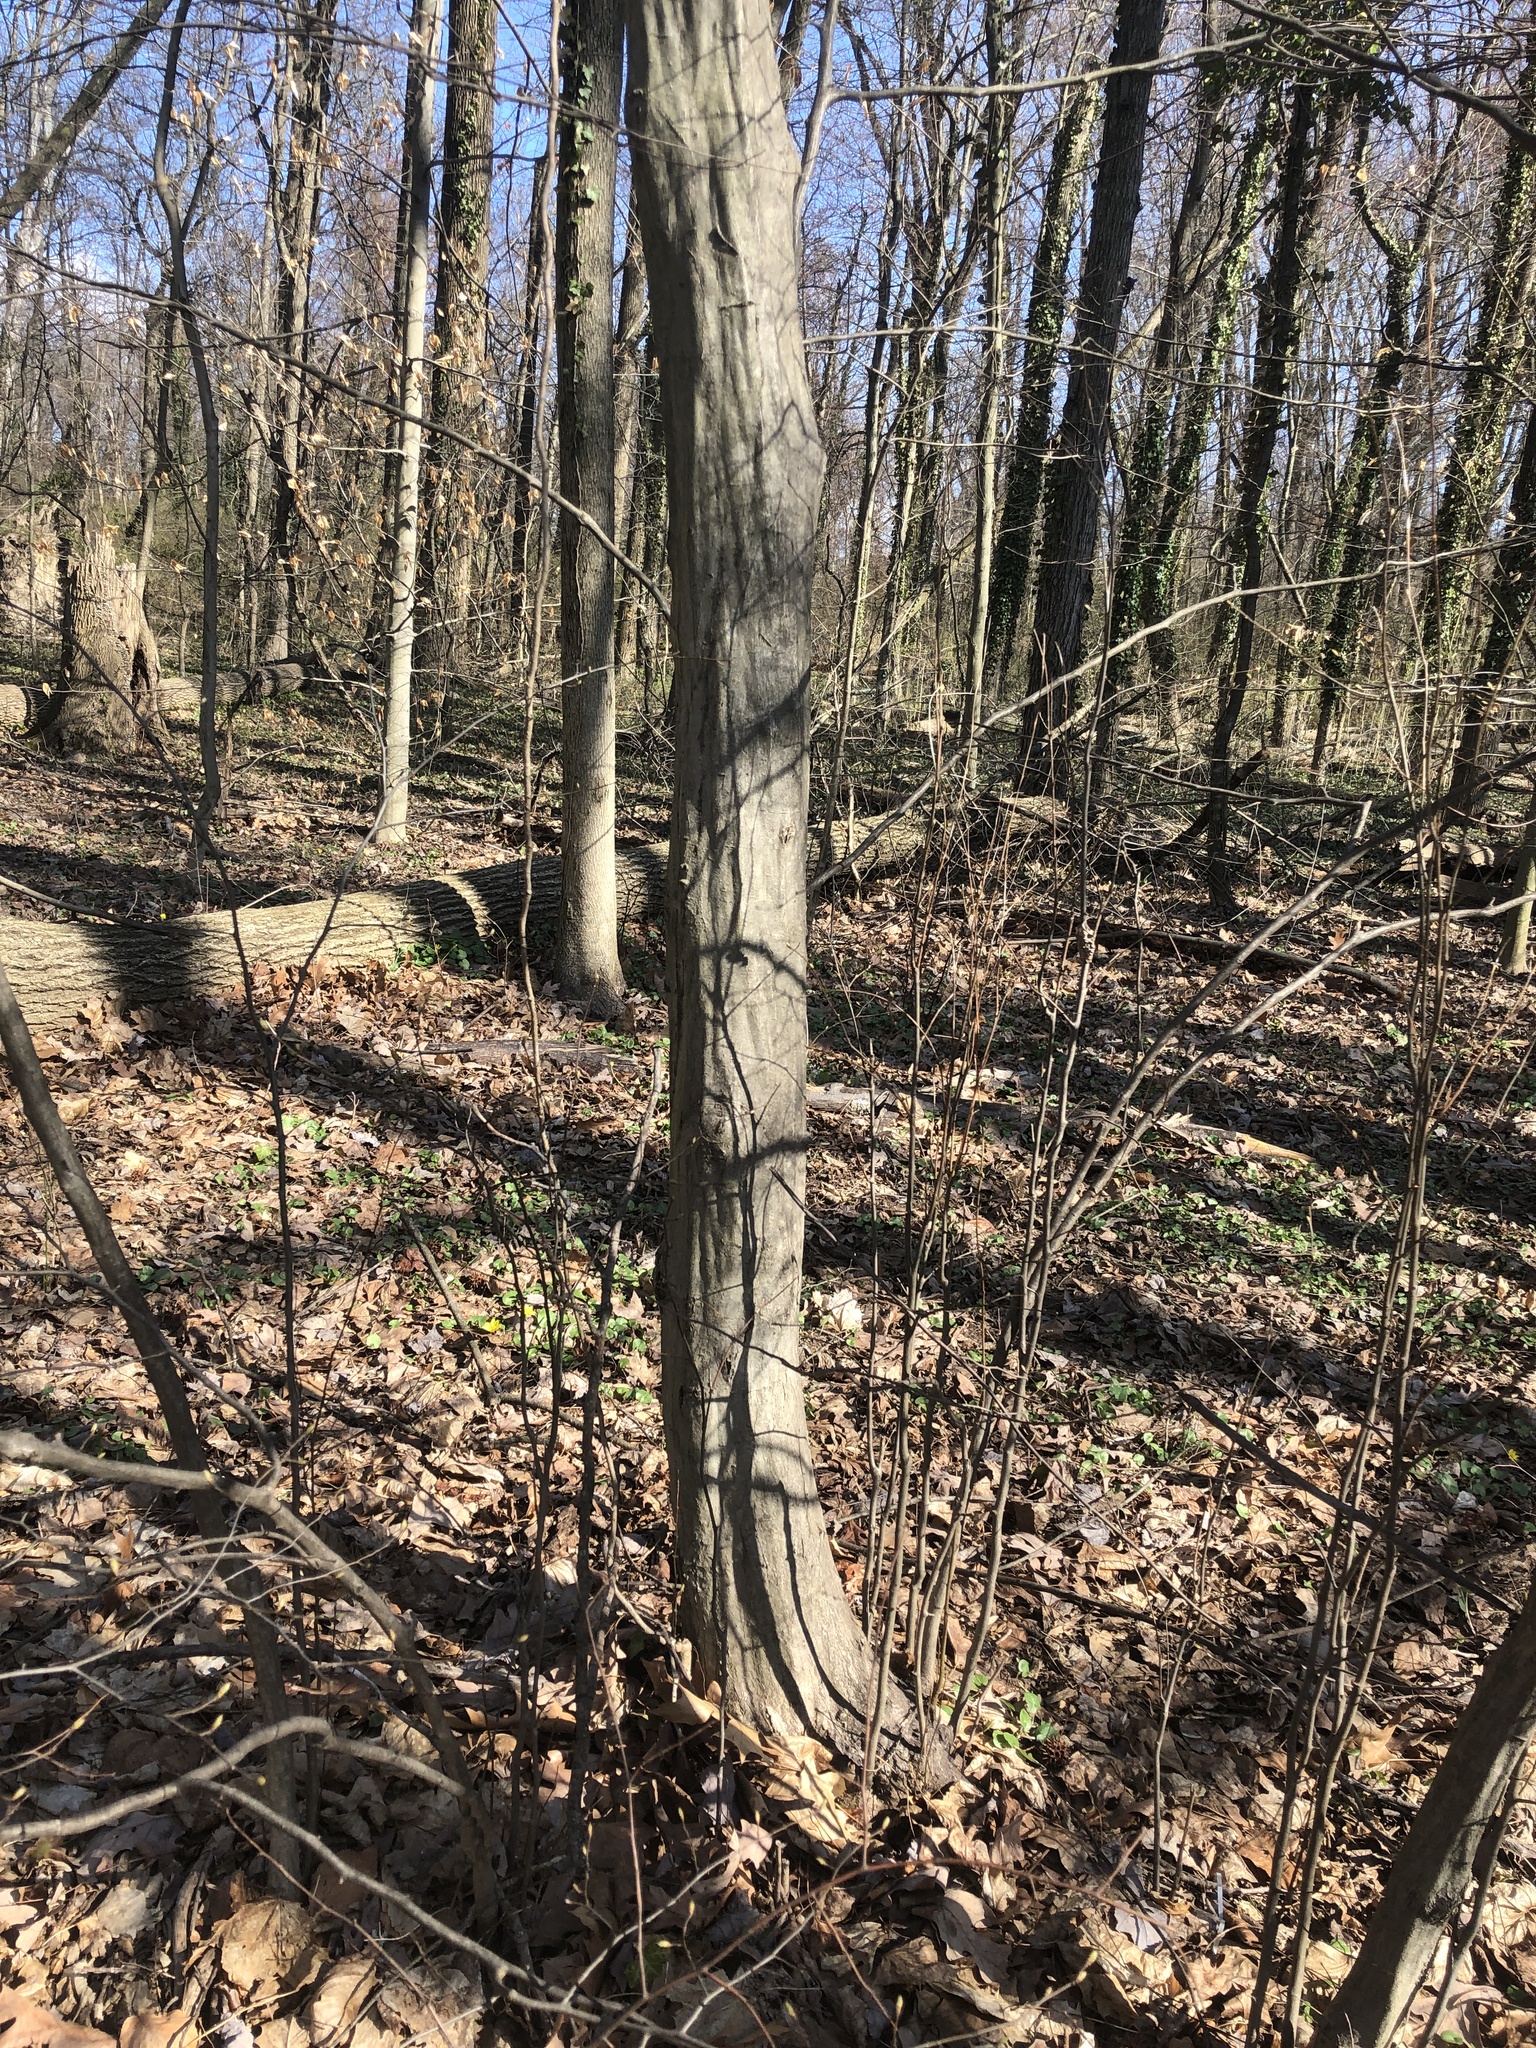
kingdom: Plantae
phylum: Tracheophyta
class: Magnoliopsida
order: Fagales
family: Betulaceae
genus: Carpinus
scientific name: Carpinus caroliniana
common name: American hornbeam
